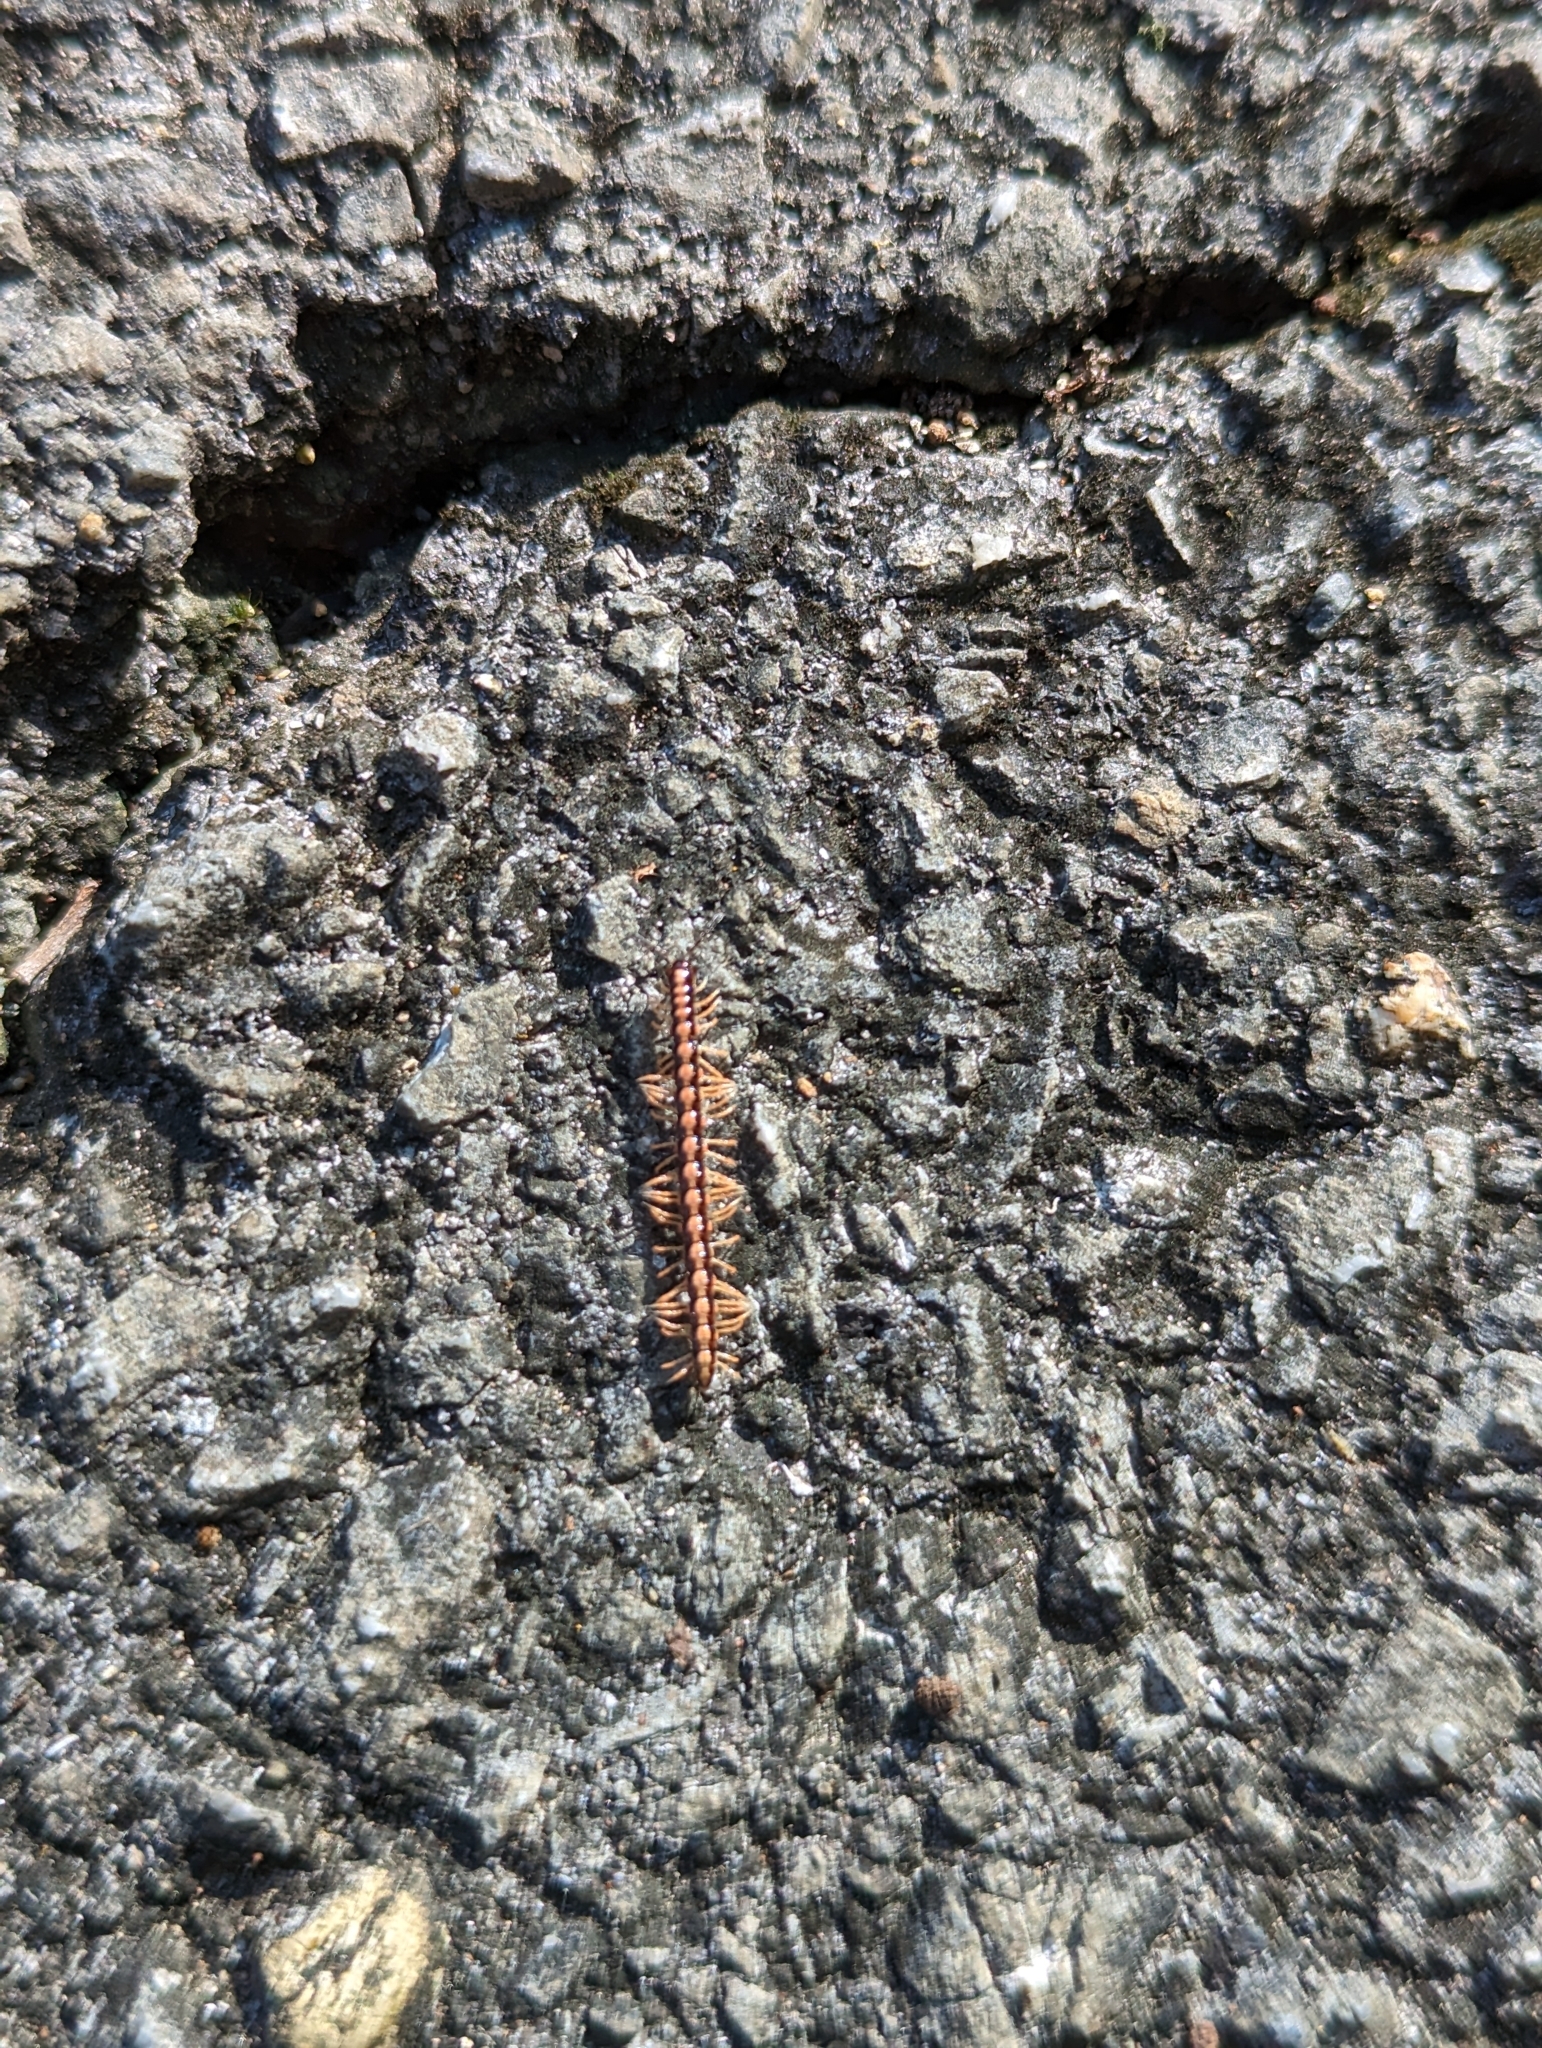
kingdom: Animalia
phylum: Arthropoda
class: Diplopoda
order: Polydesmida
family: Paradoxosomatidae
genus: Helicorthomorpha
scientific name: Helicorthomorpha holstii
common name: Millipede
